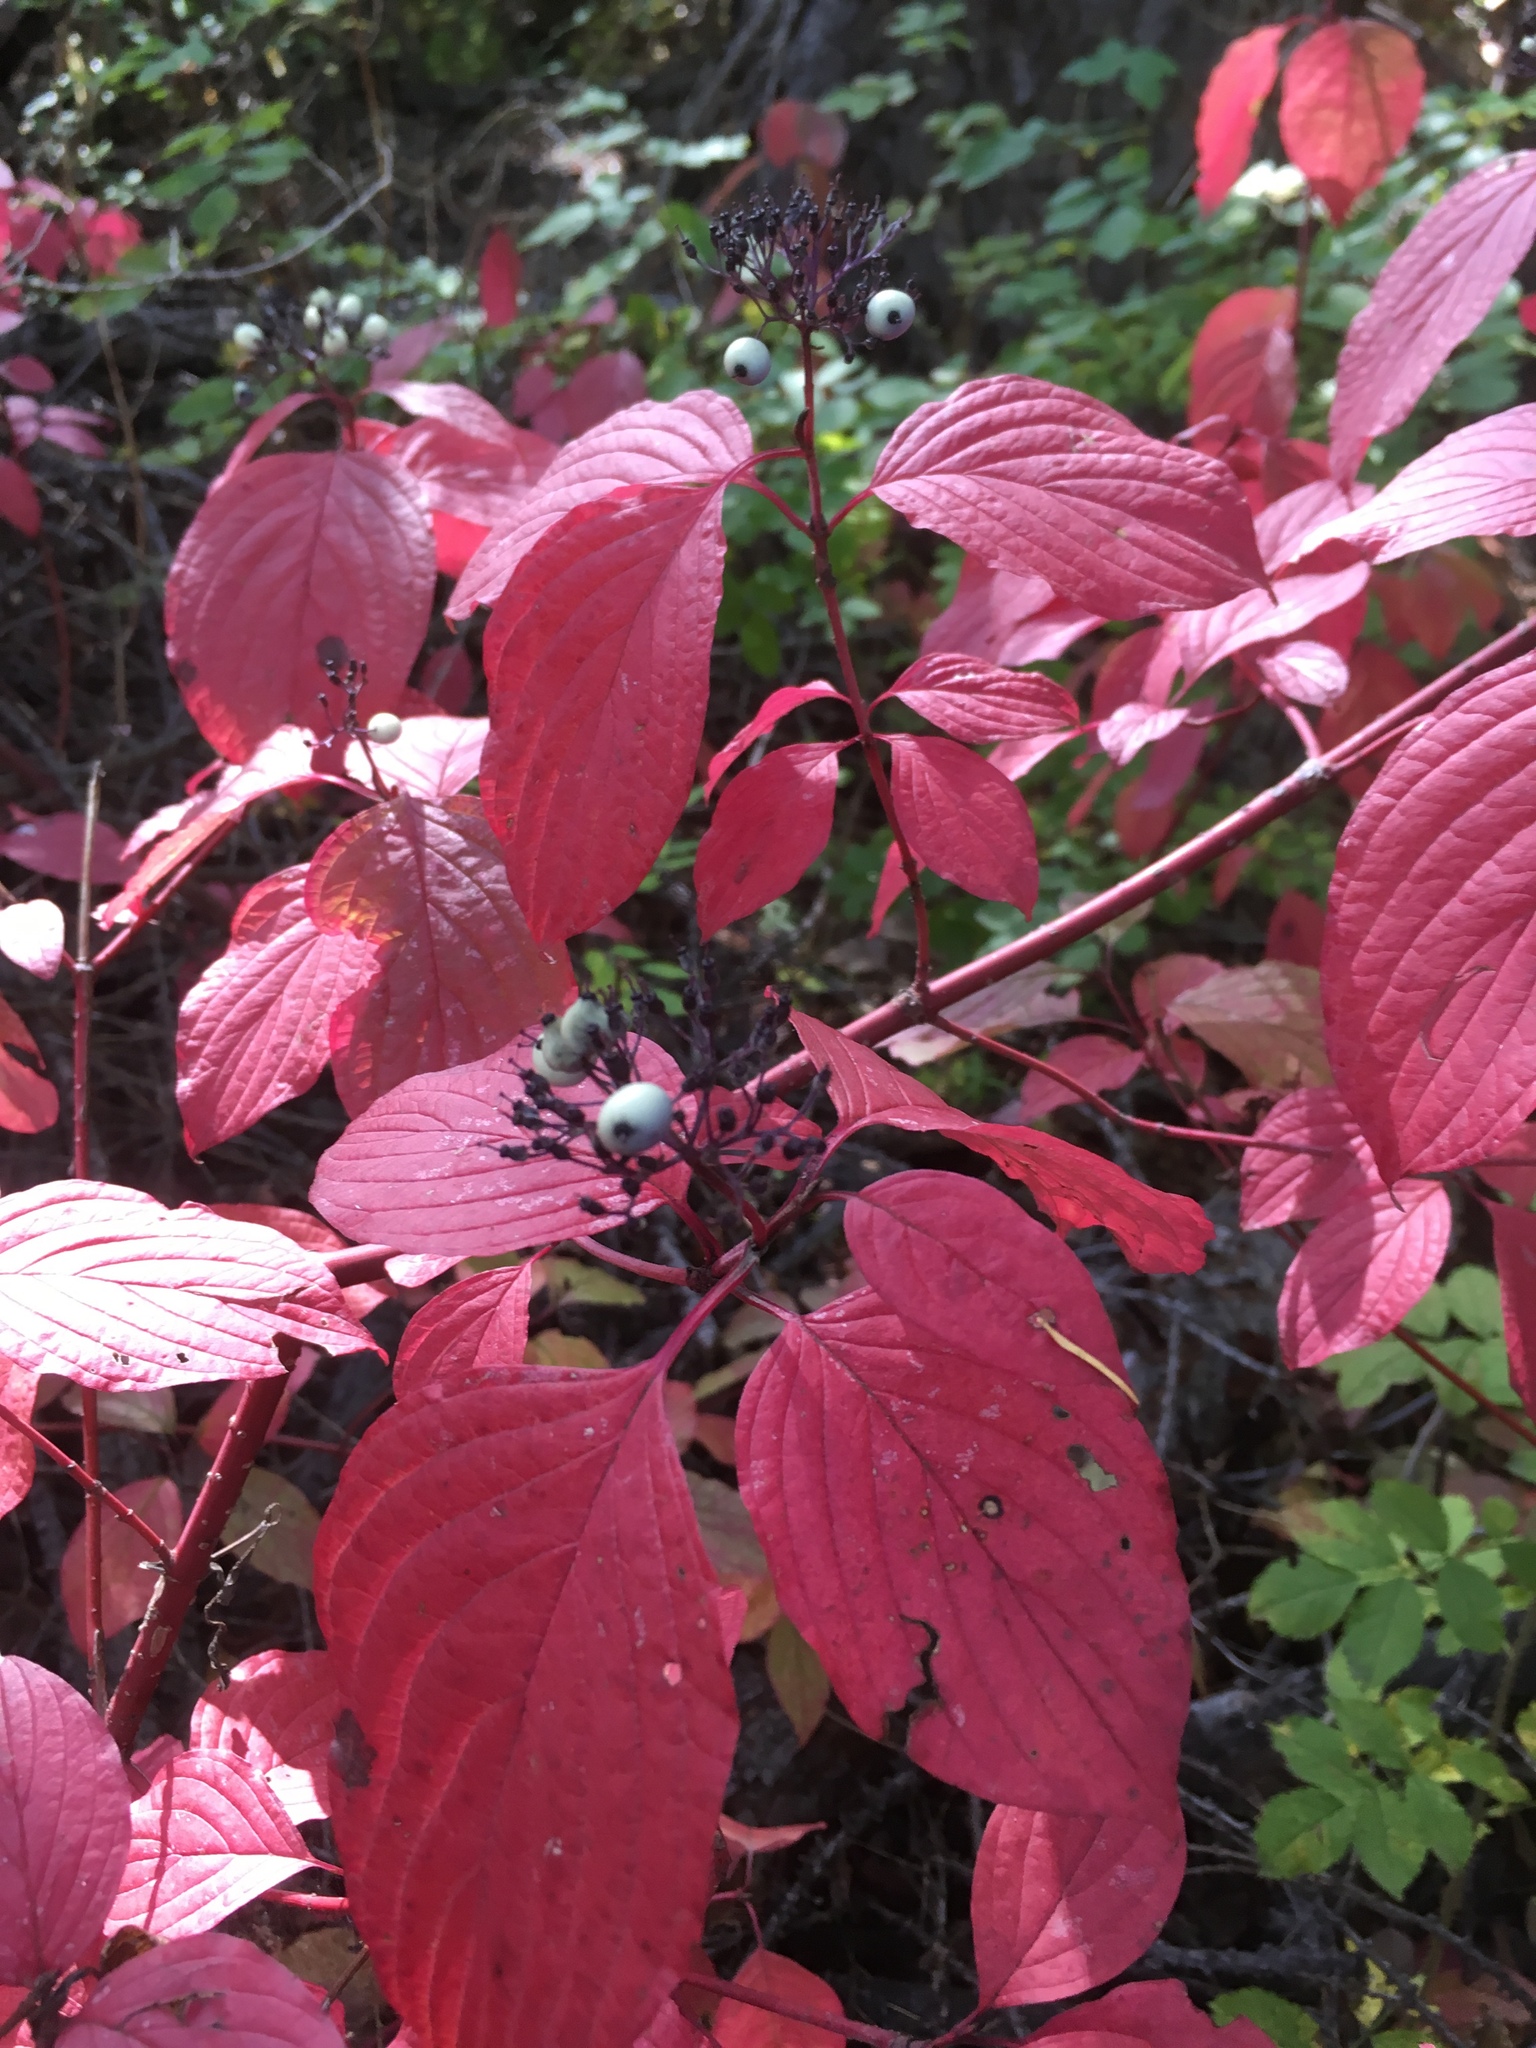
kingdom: Plantae
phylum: Tracheophyta
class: Magnoliopsida
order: Cornales
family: Cornaceae
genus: Cornus
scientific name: Cornus alba
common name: White dogwood
